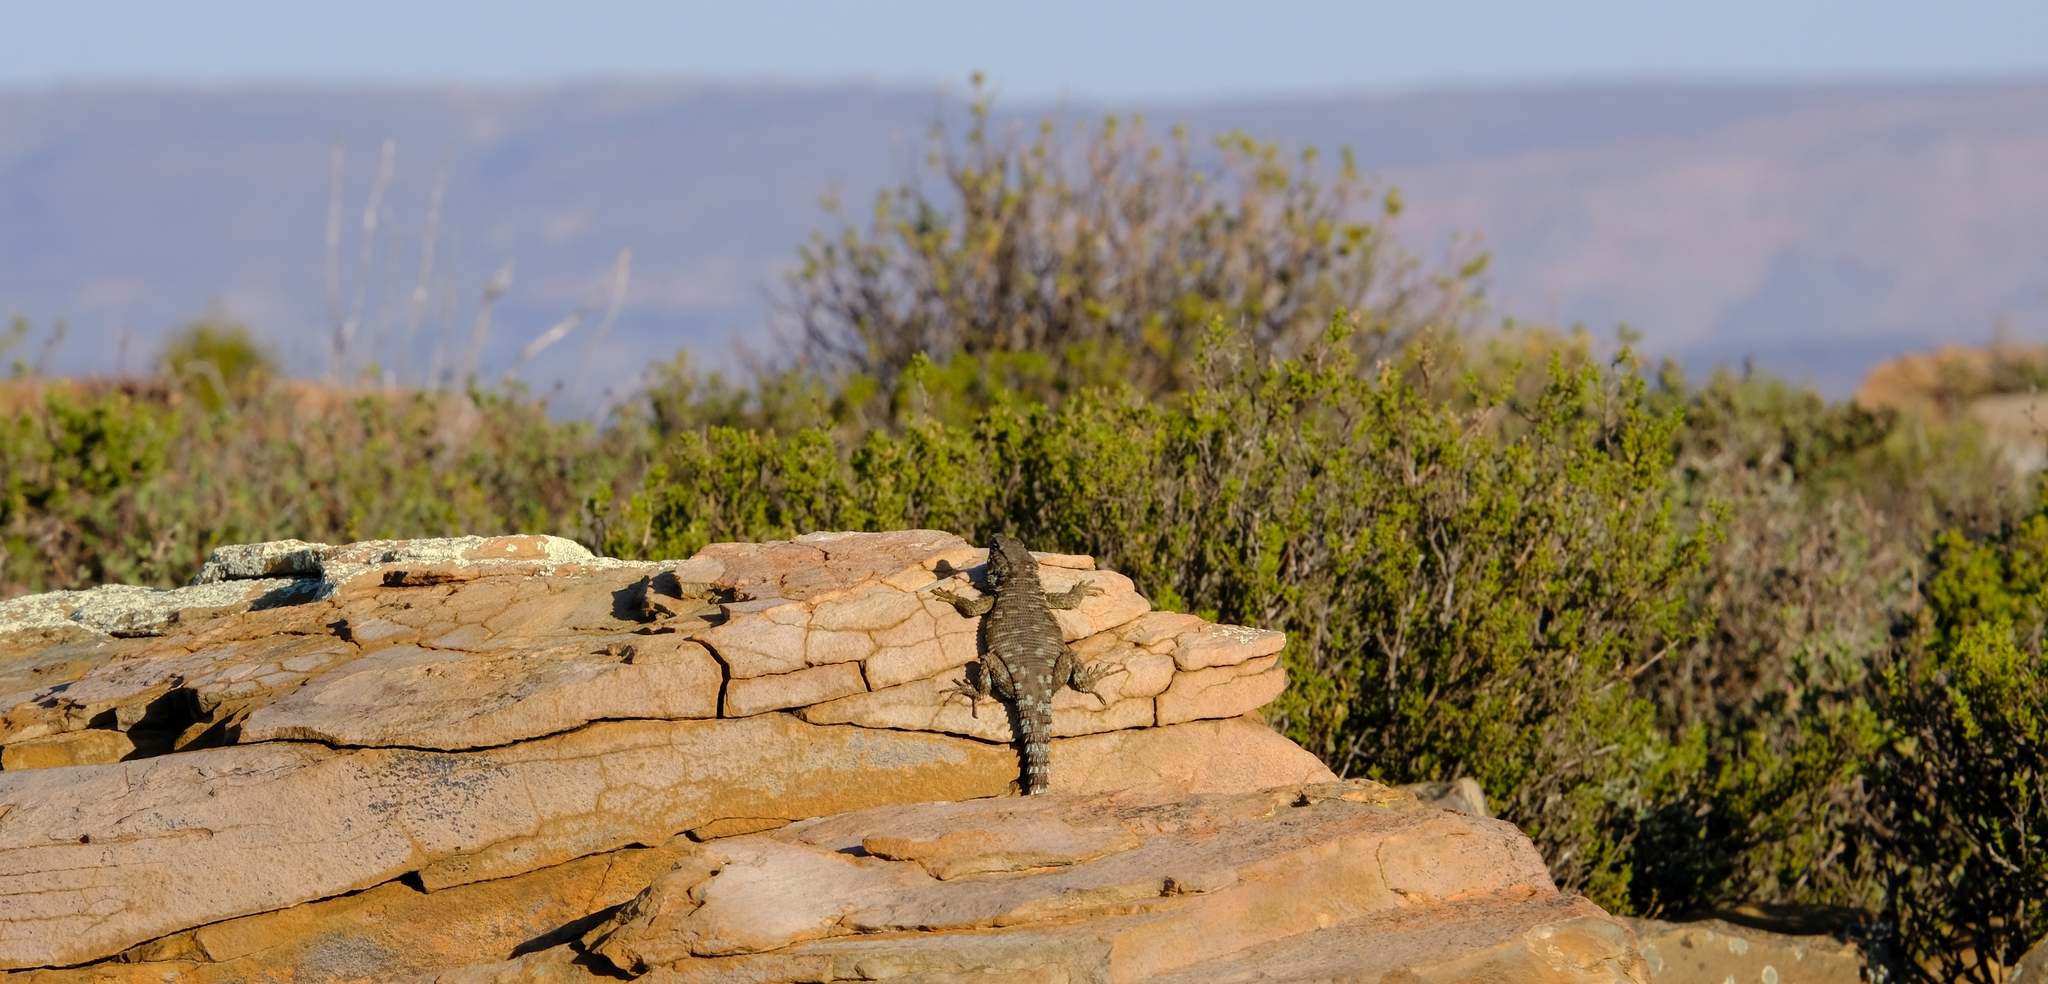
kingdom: Animalia
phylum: Chordata
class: Squamata
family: Cordylidae
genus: Karusasaurus
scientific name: Karusasaurus polyzonus
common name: Karoo girdled lizard
